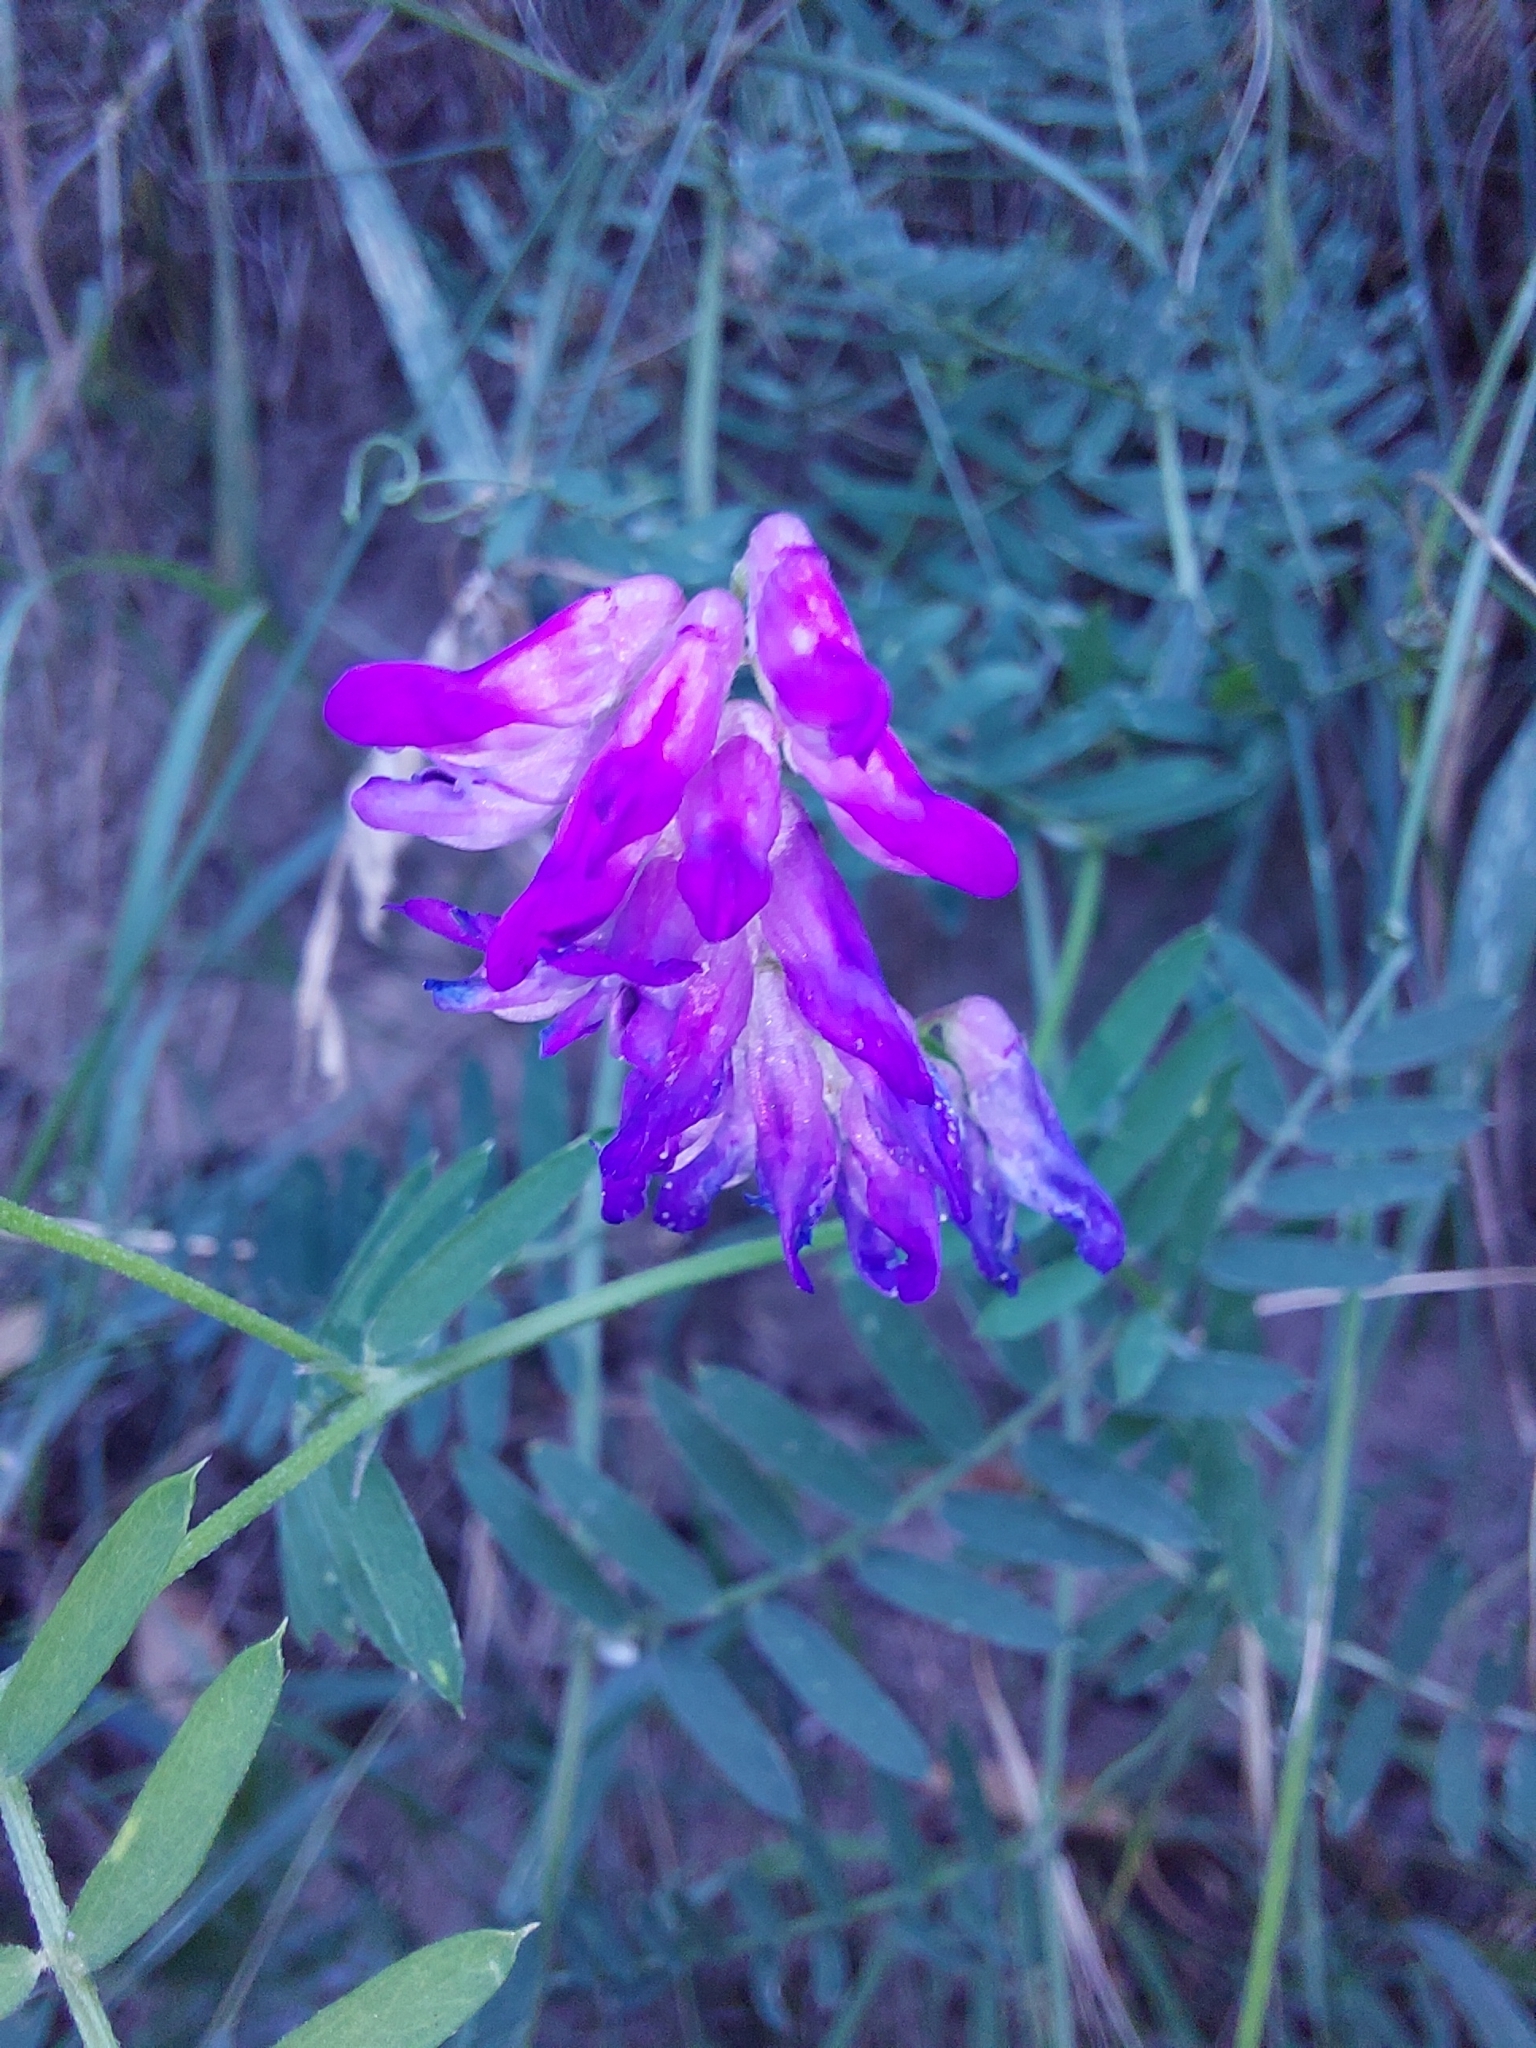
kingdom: Plantae
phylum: Tracheophyta
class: Magnoliopsida
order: Fabales
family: Fabaceae
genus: Vicia
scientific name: Vicia cracca
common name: Bird vetch
